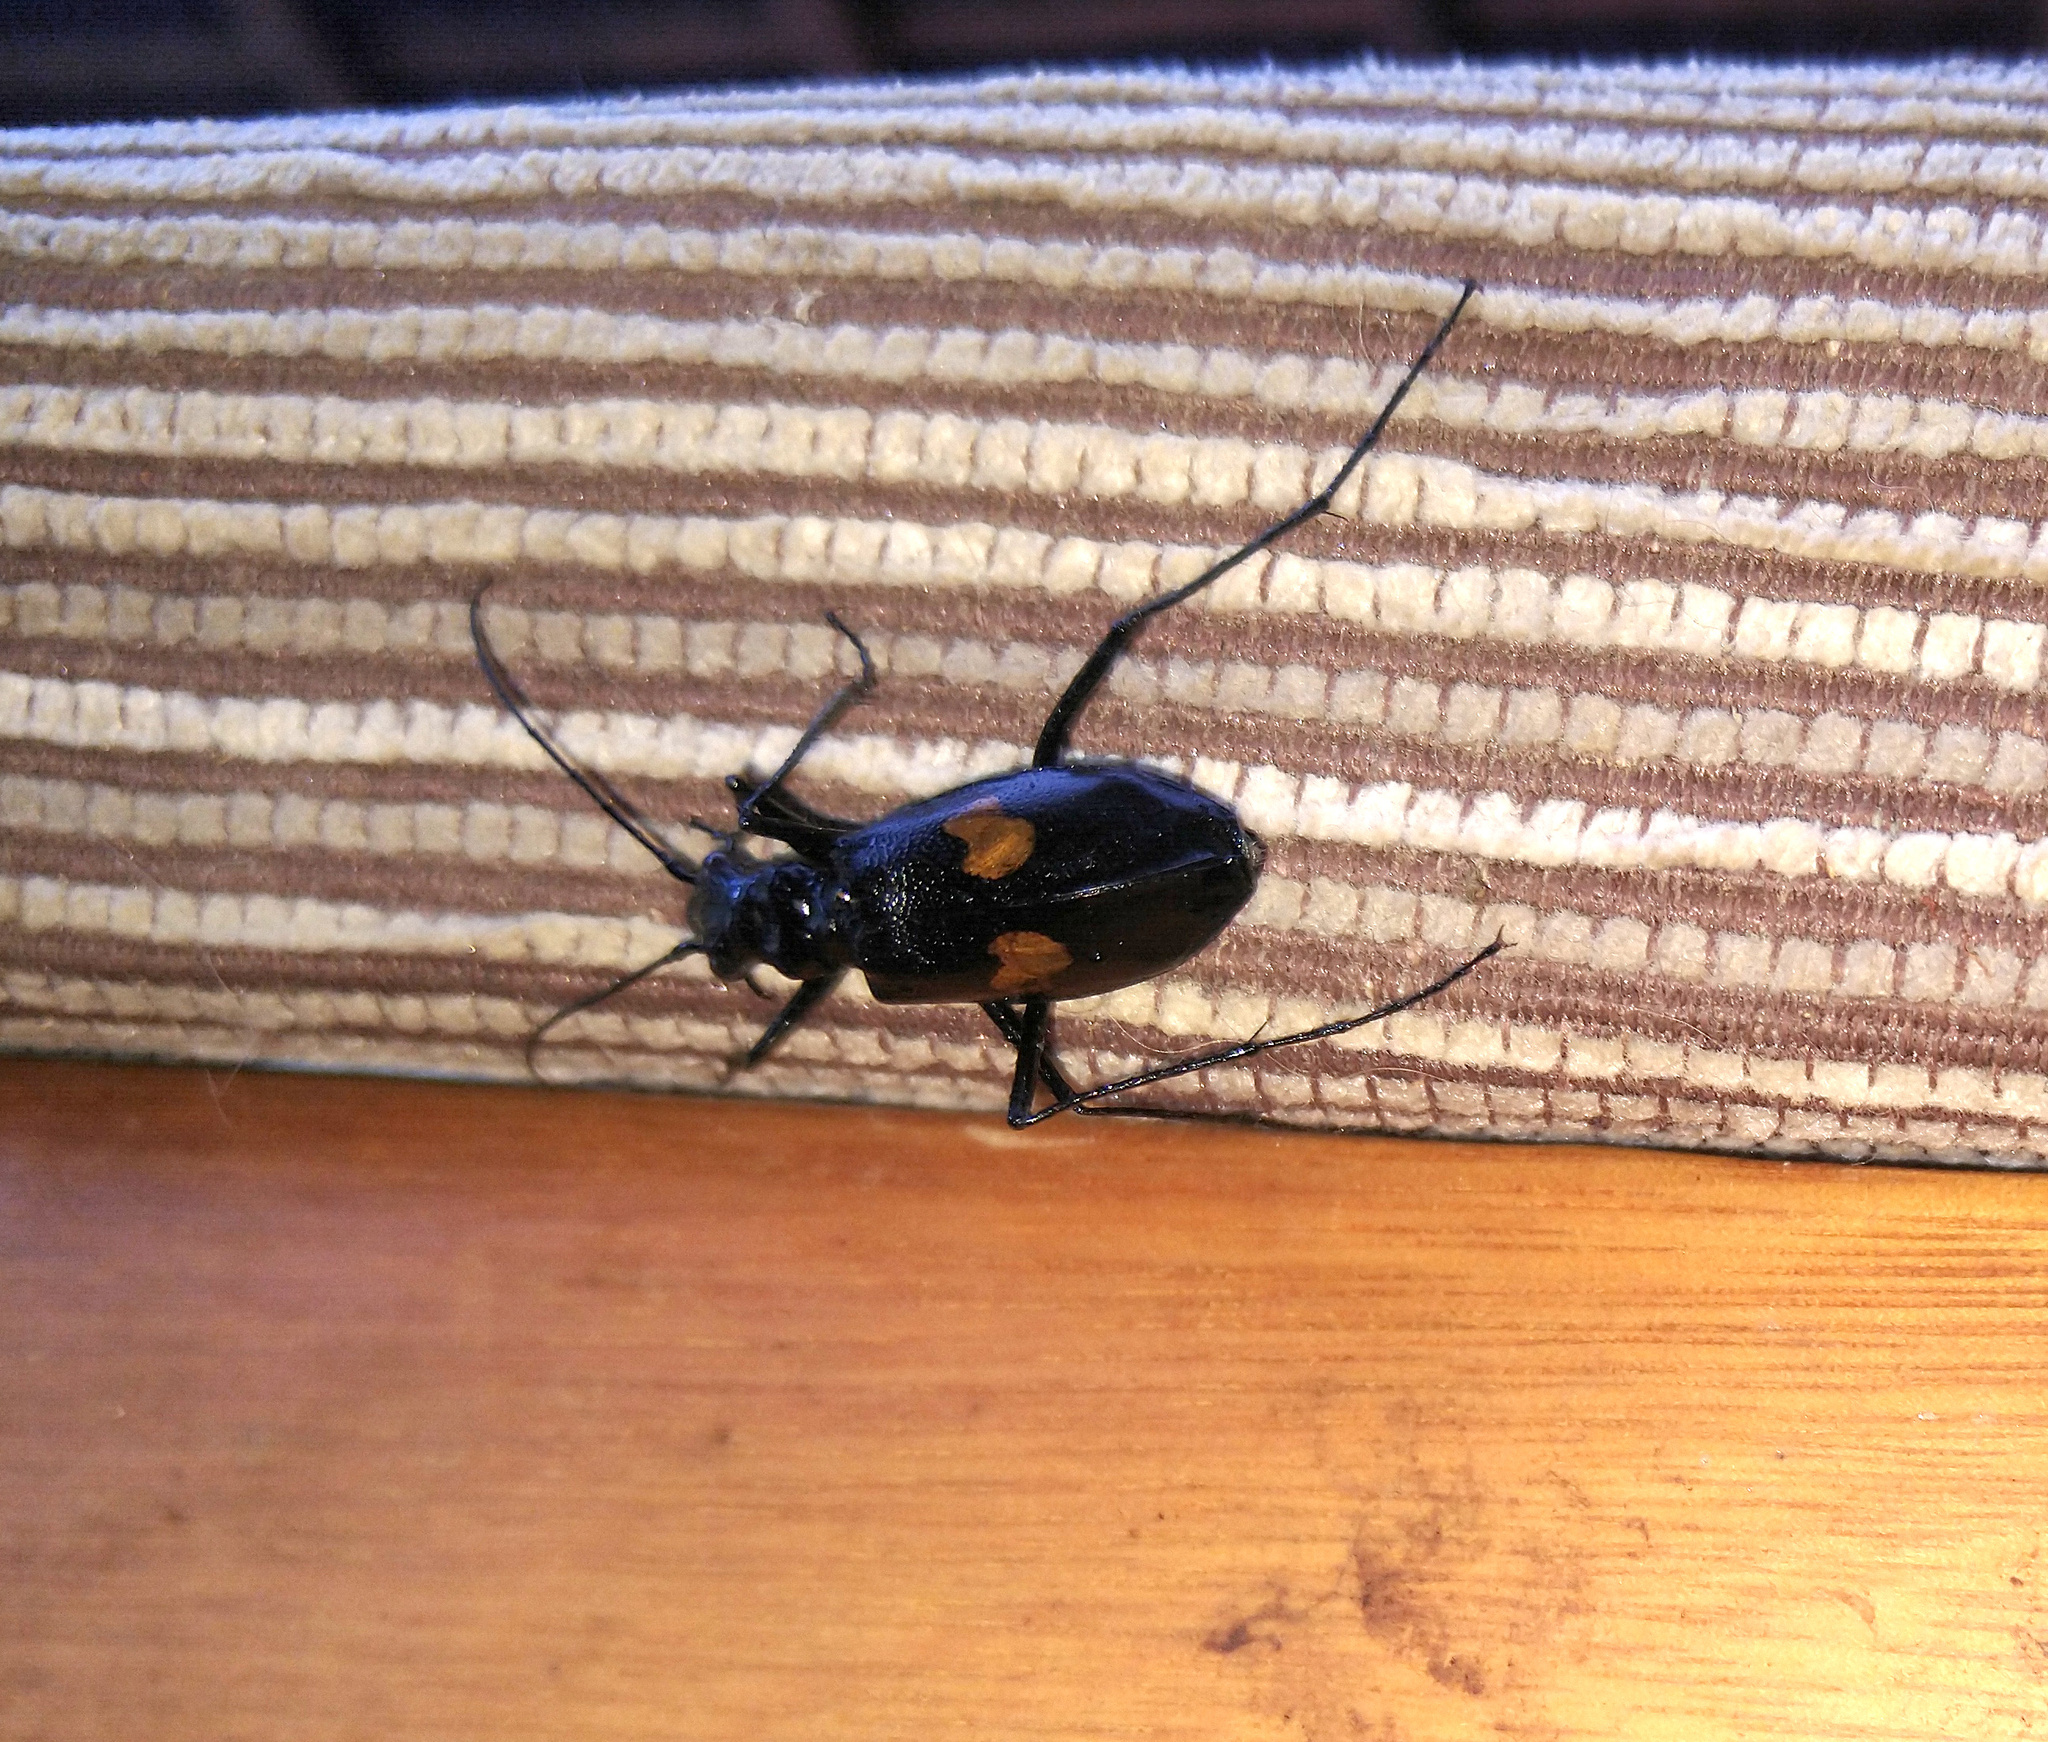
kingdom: Animalia
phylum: Arthropoda
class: Insecta
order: Coleoptera
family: Carabidae
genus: Oxycheila
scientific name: Oxycheila tristis
